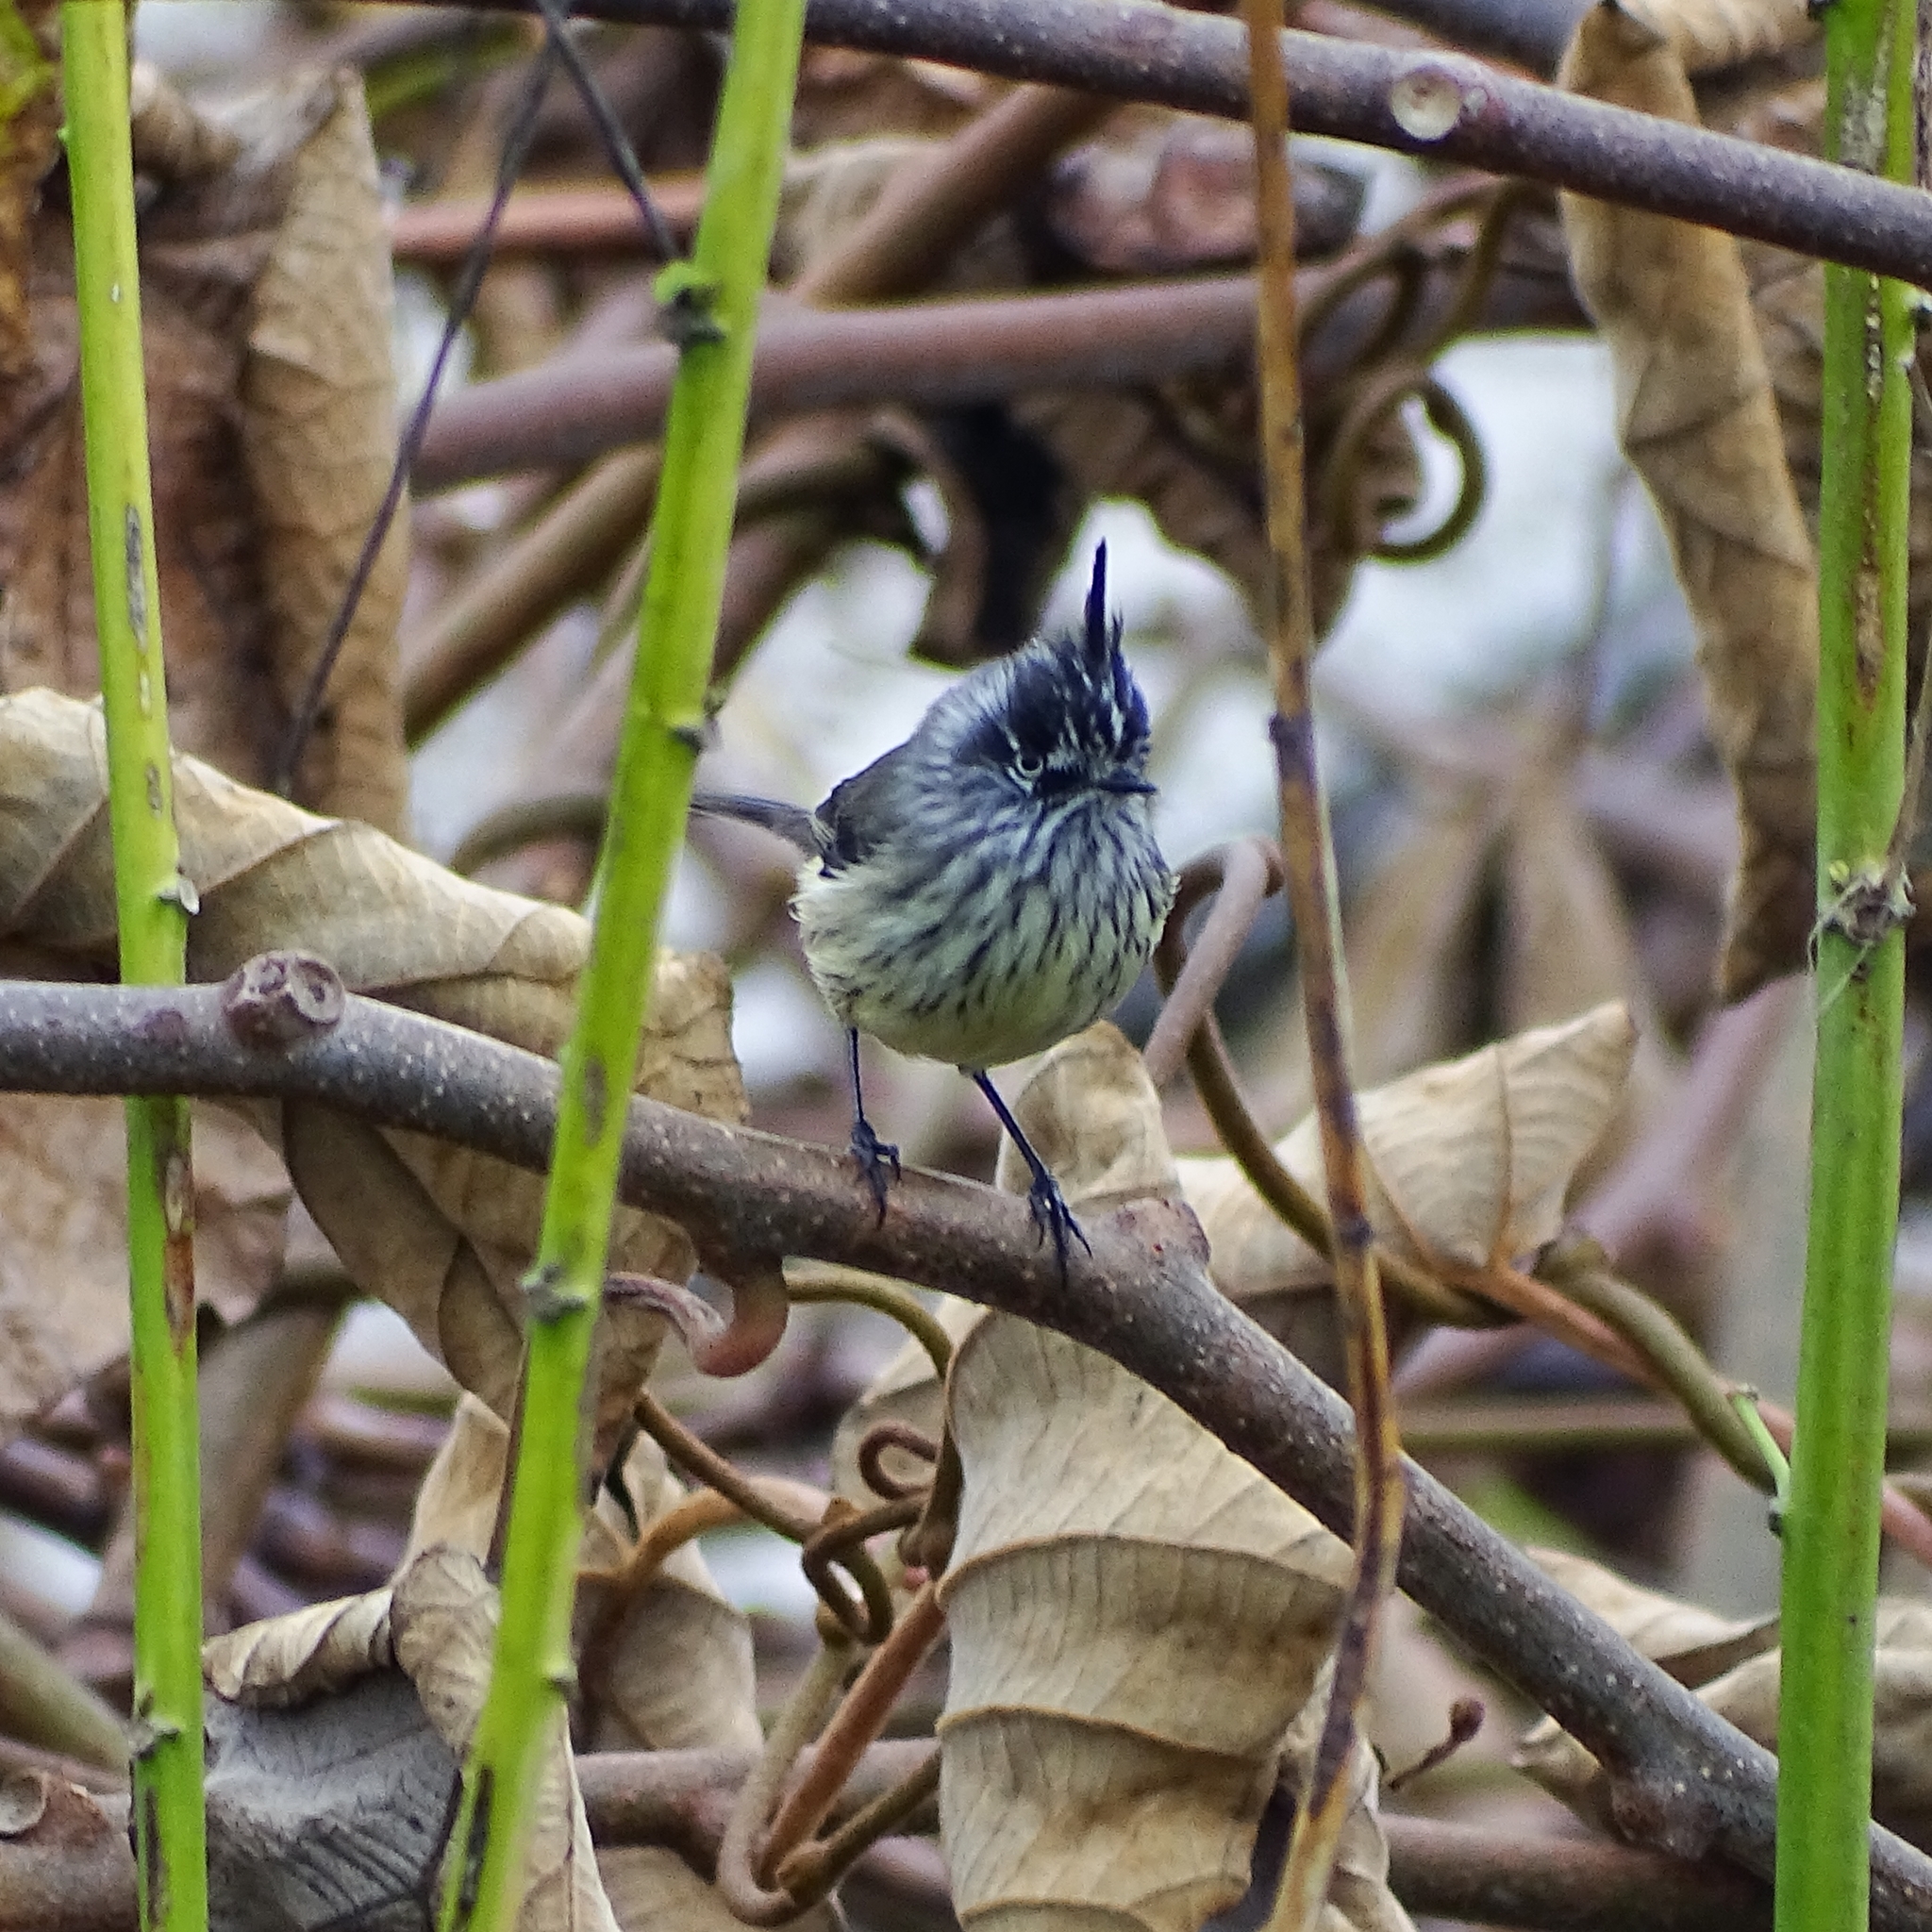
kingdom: Animalia
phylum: Chordata
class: Aves
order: Passeriformes
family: Tyrannidae
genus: Anairetes
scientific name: Anairetes parulus
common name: Tufted tit-tyrant
